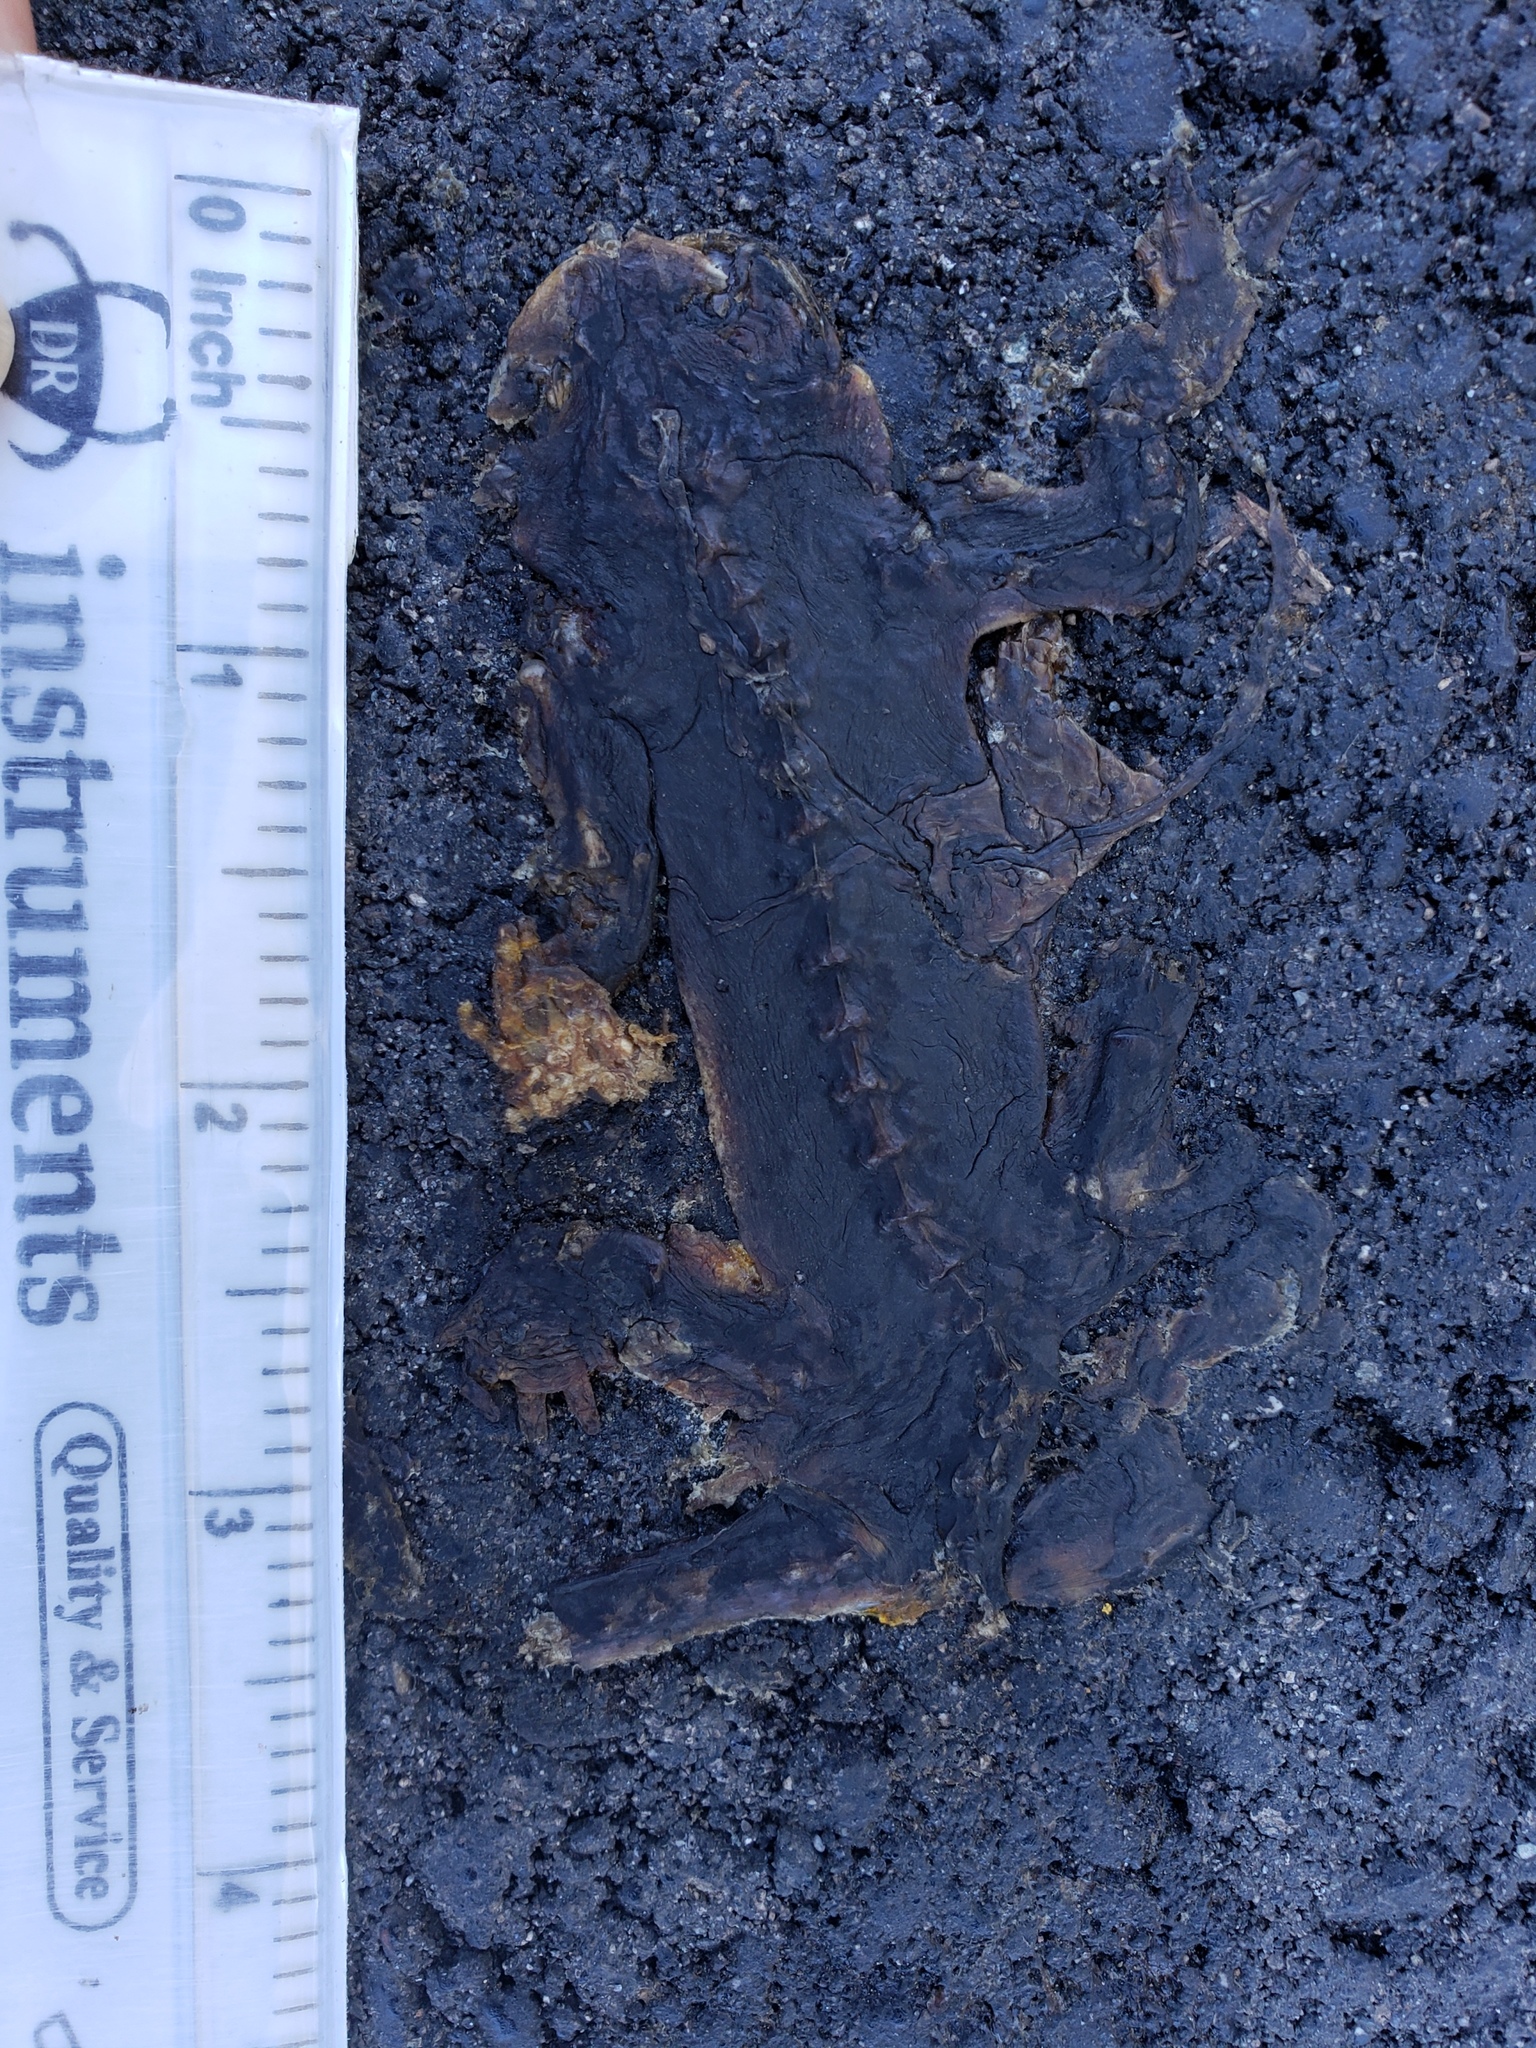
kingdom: Animalia
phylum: Chordata
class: Amphibia
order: Caudata
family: Salamandridae
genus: Taricha
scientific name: Taricha
